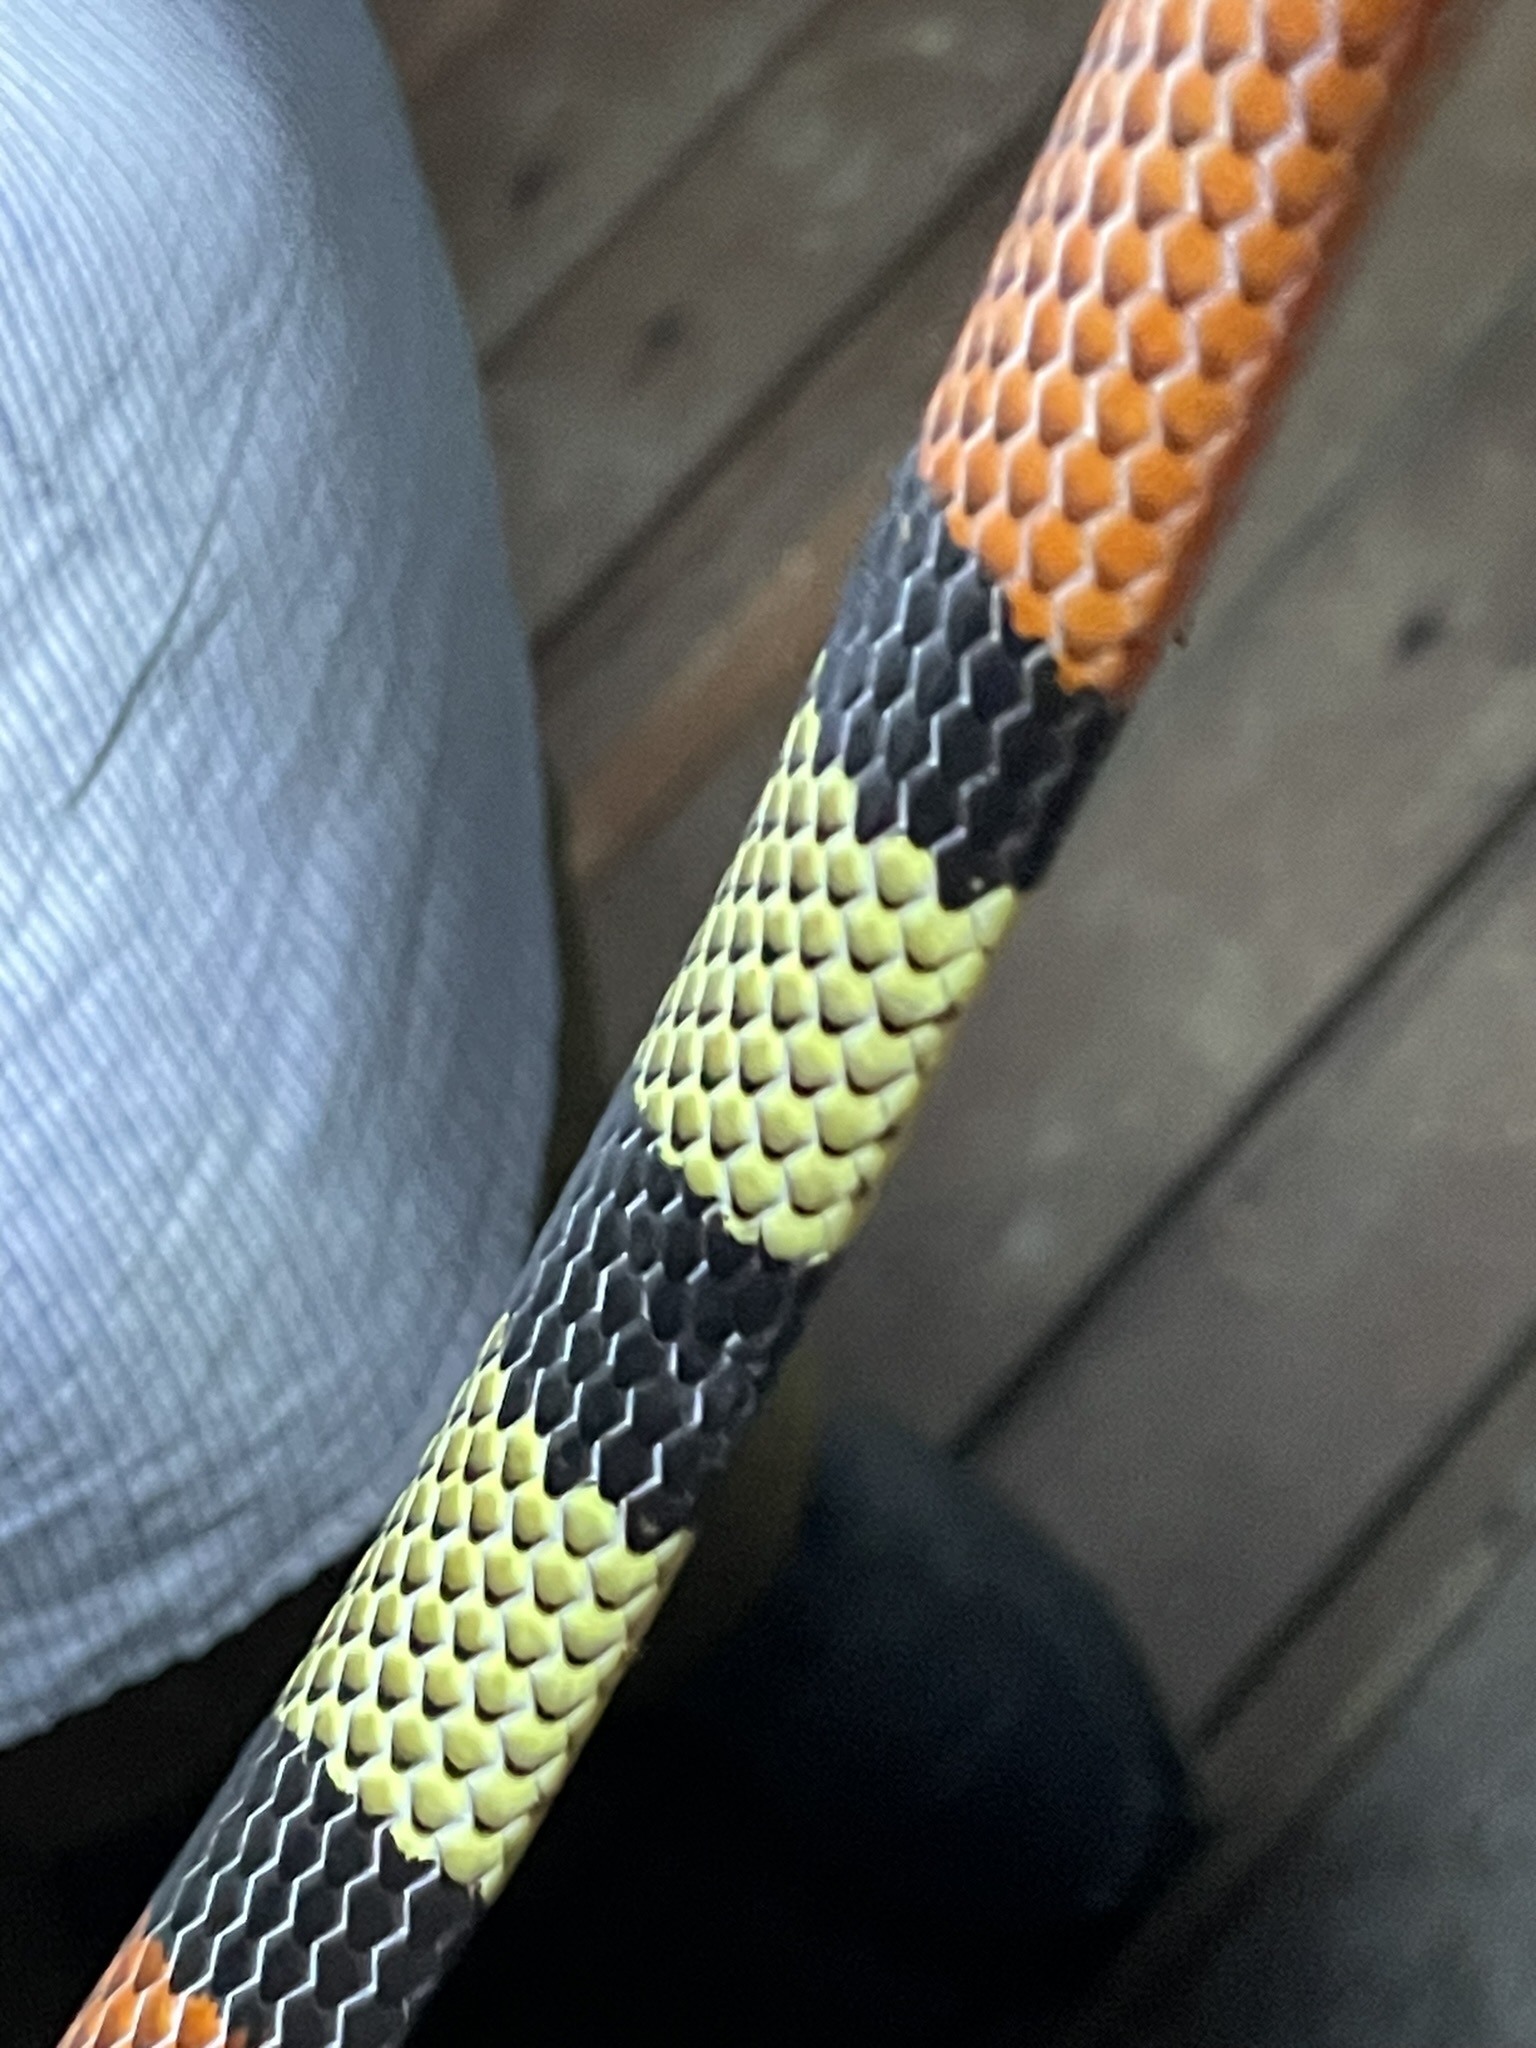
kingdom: Animalia
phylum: Chordata
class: Squamata
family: Elapidae
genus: Micrurus
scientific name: Micrurus obscurus
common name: Bolivian coral snake
